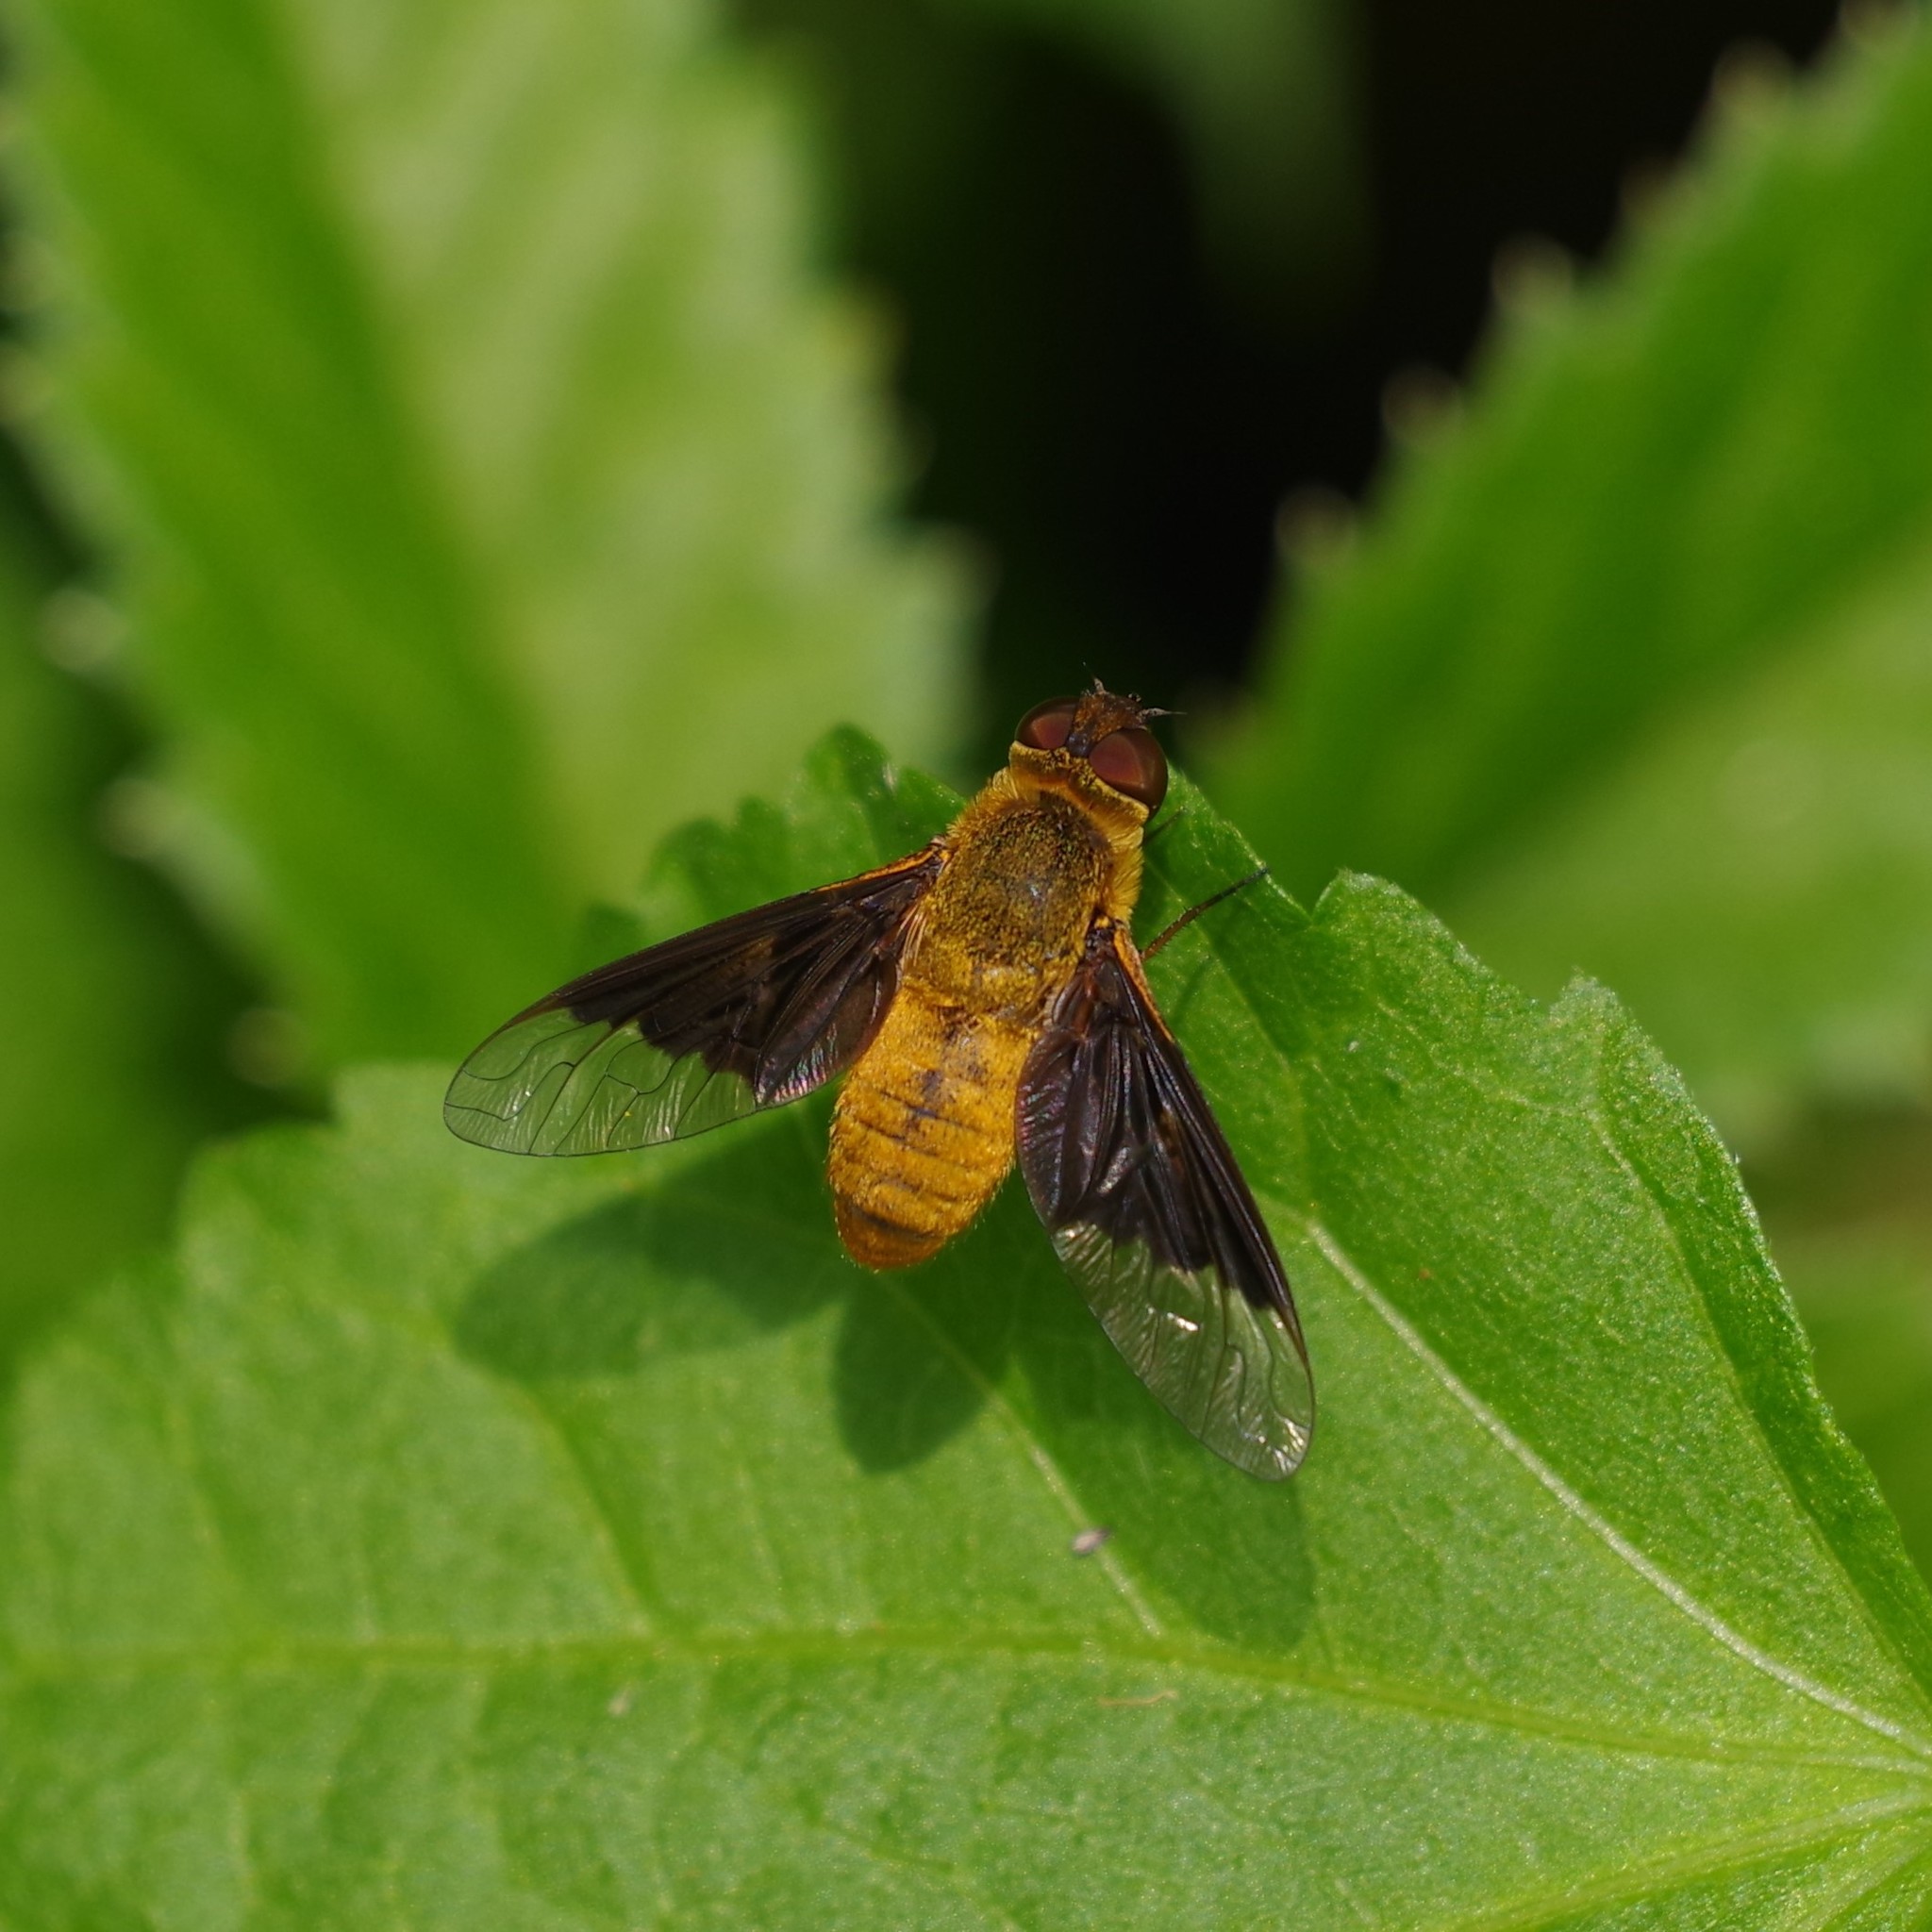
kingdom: Animalia
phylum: Arthropoda
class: Insecta
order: Diptera
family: Bombyliidae
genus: Chrysanthrax
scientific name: Chrysanthrax cypris
